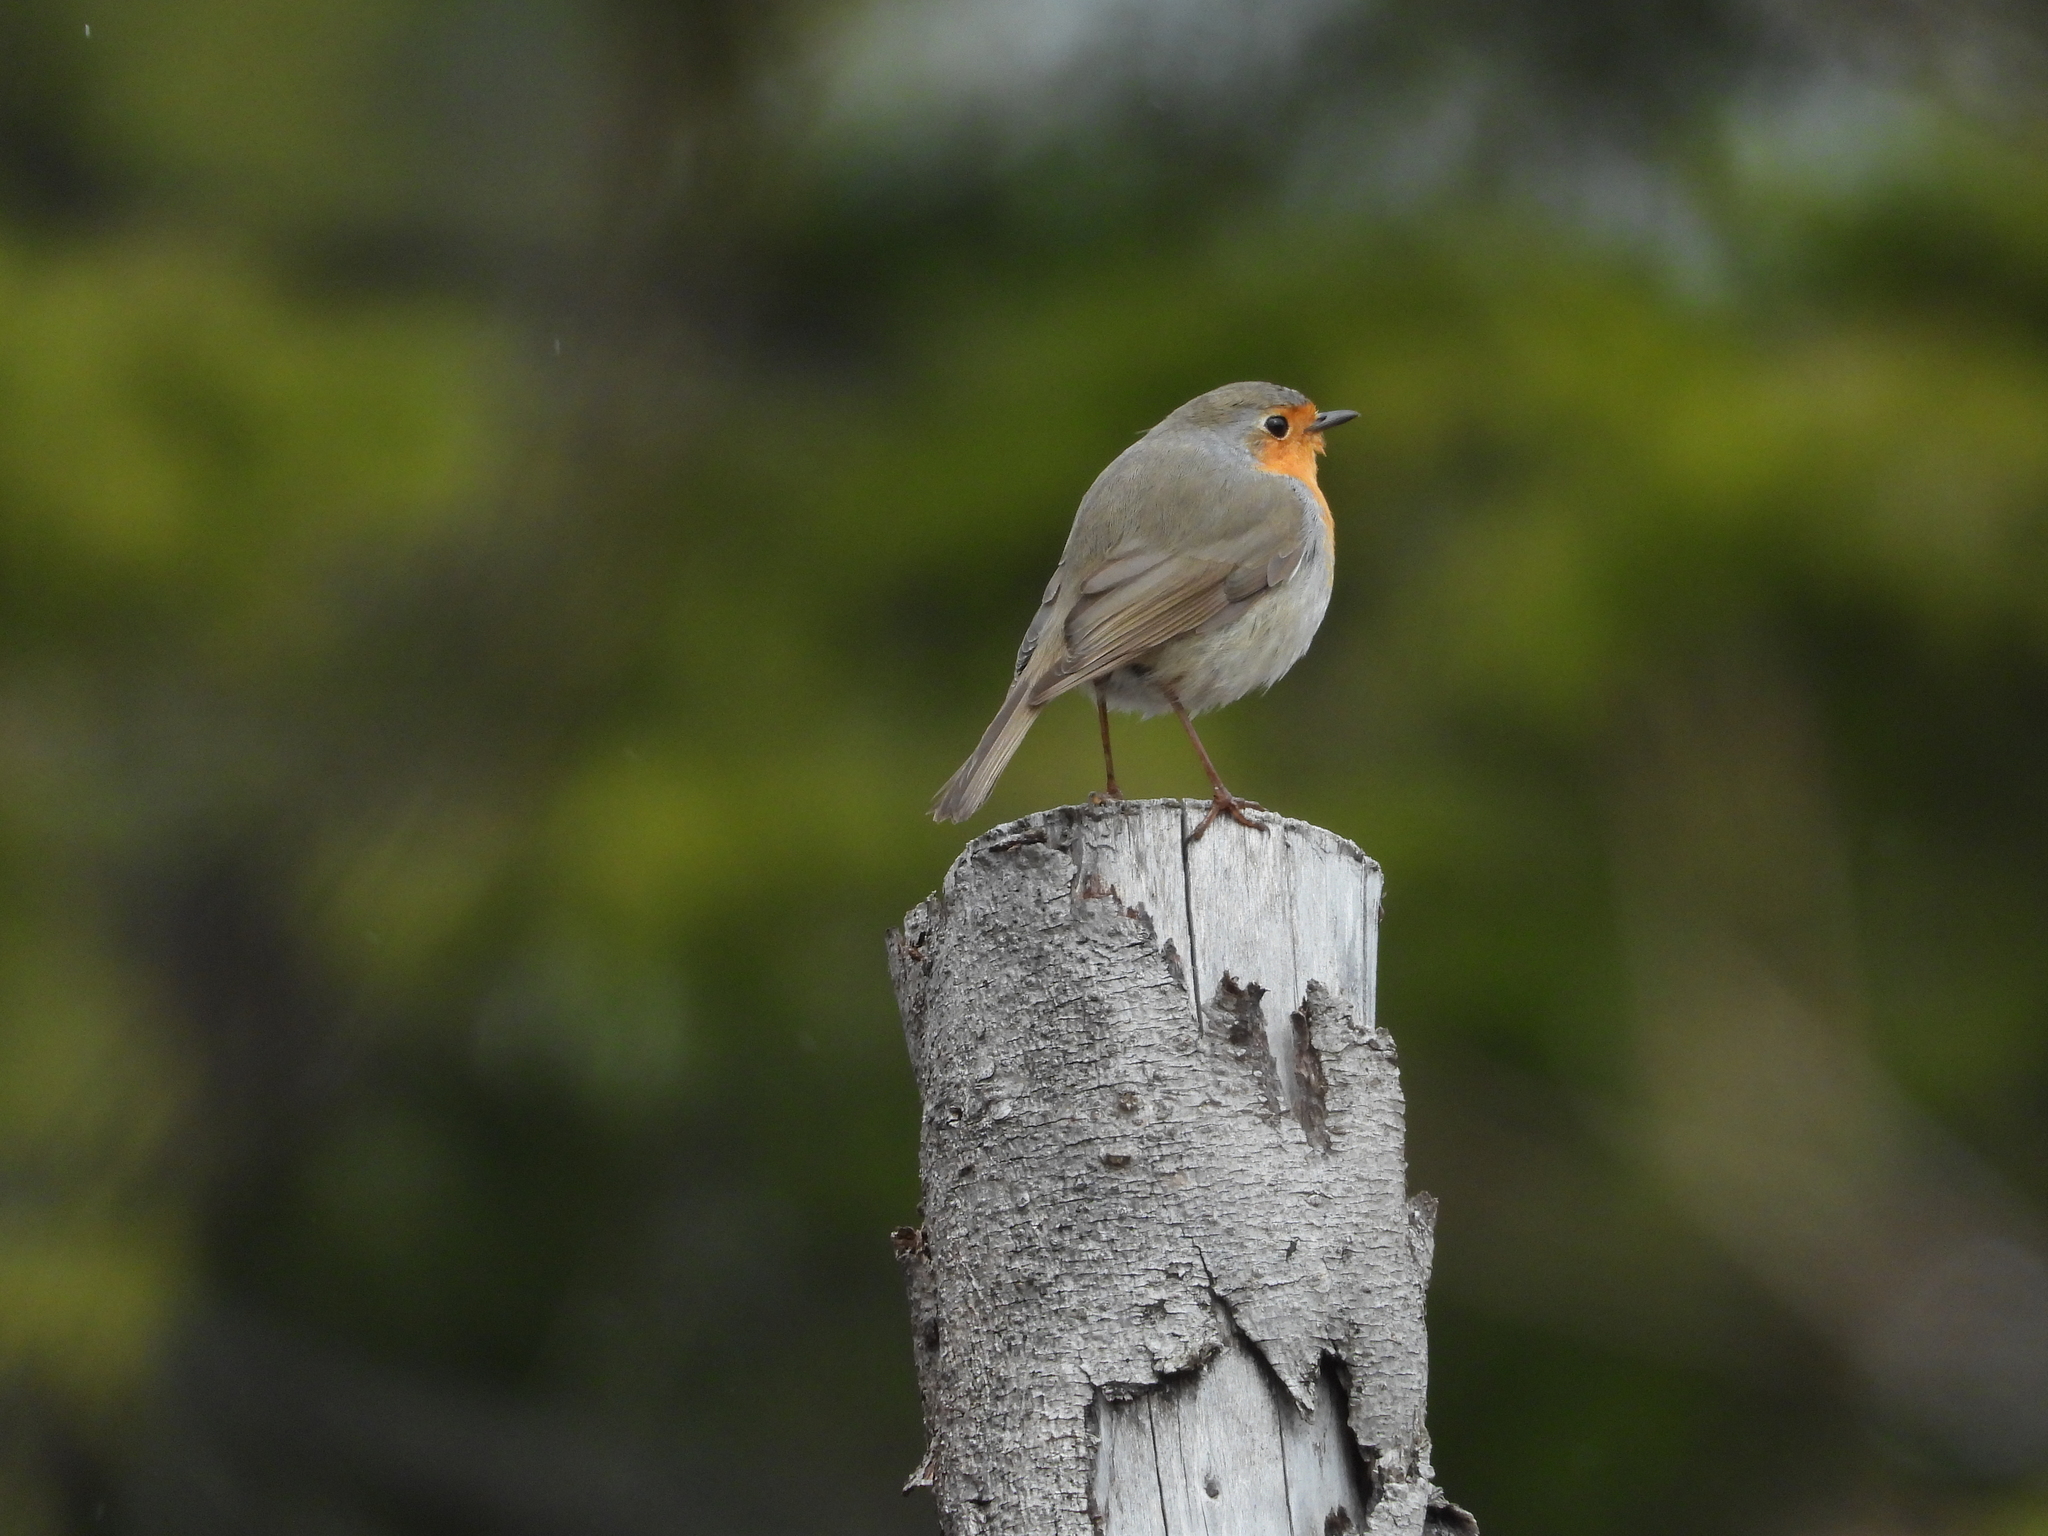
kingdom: Animalia
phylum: Chordata
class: Aves
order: Passeriformes
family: Muscicapidae
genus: Erithacus
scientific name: Erithacus rubecula
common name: European robin
